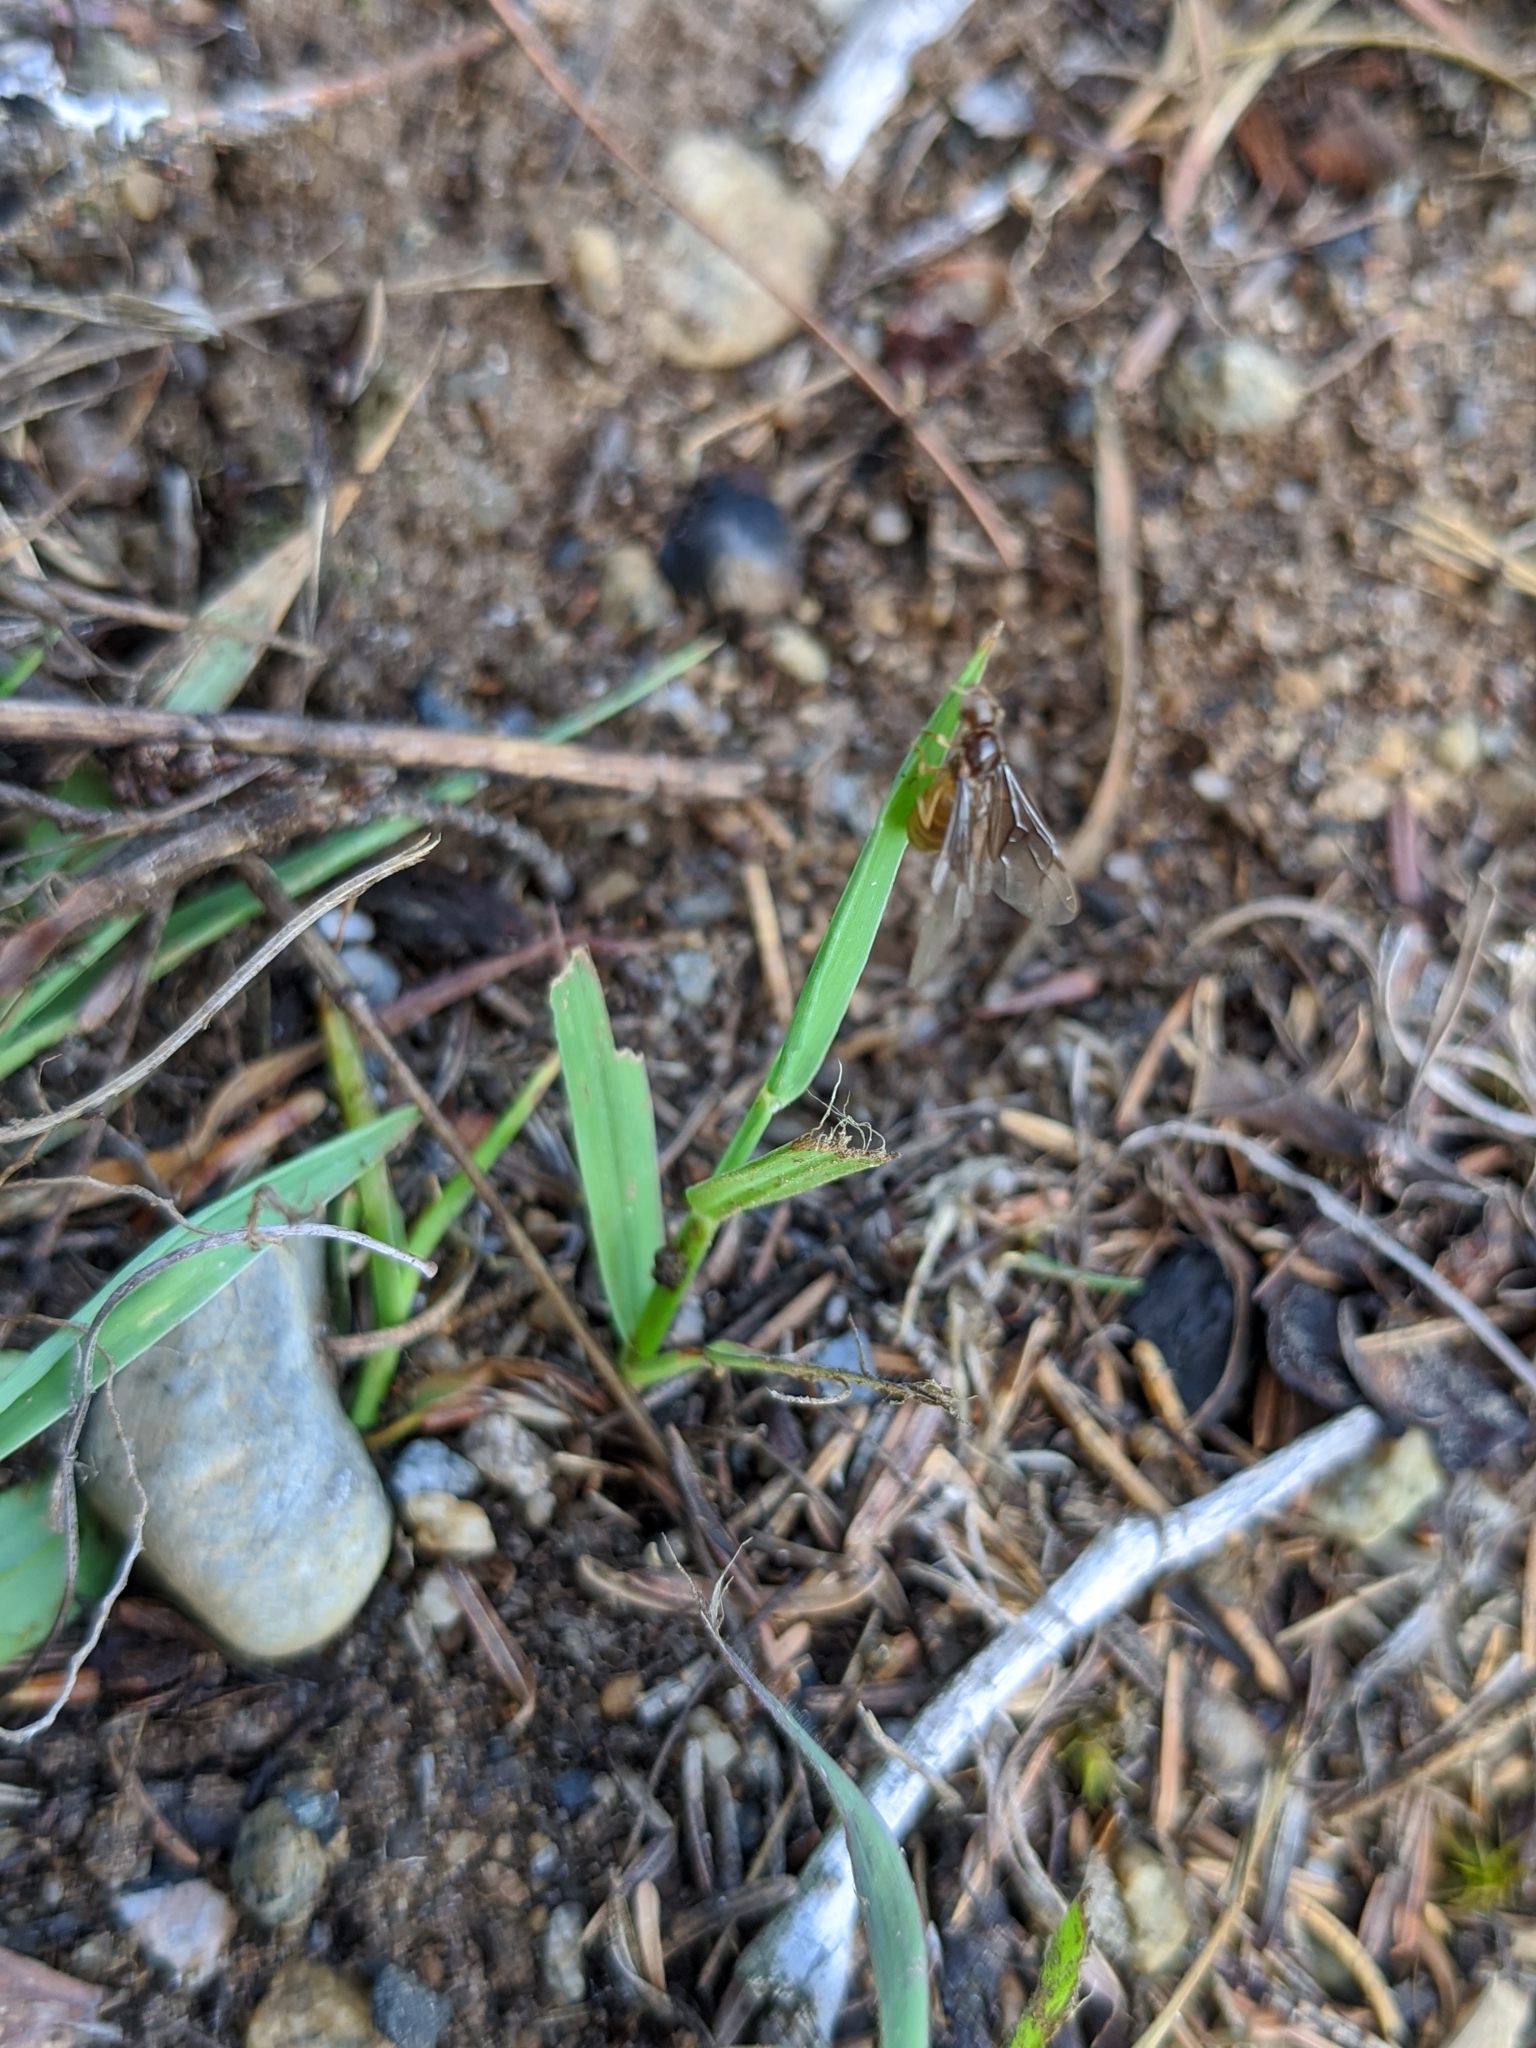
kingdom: Animalia
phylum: Arthropoda
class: Insecta
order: Hymenoptera
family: Formicidae
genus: Lasius
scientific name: Lasius pallitarsis
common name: Subterranean aphid-tending ant
